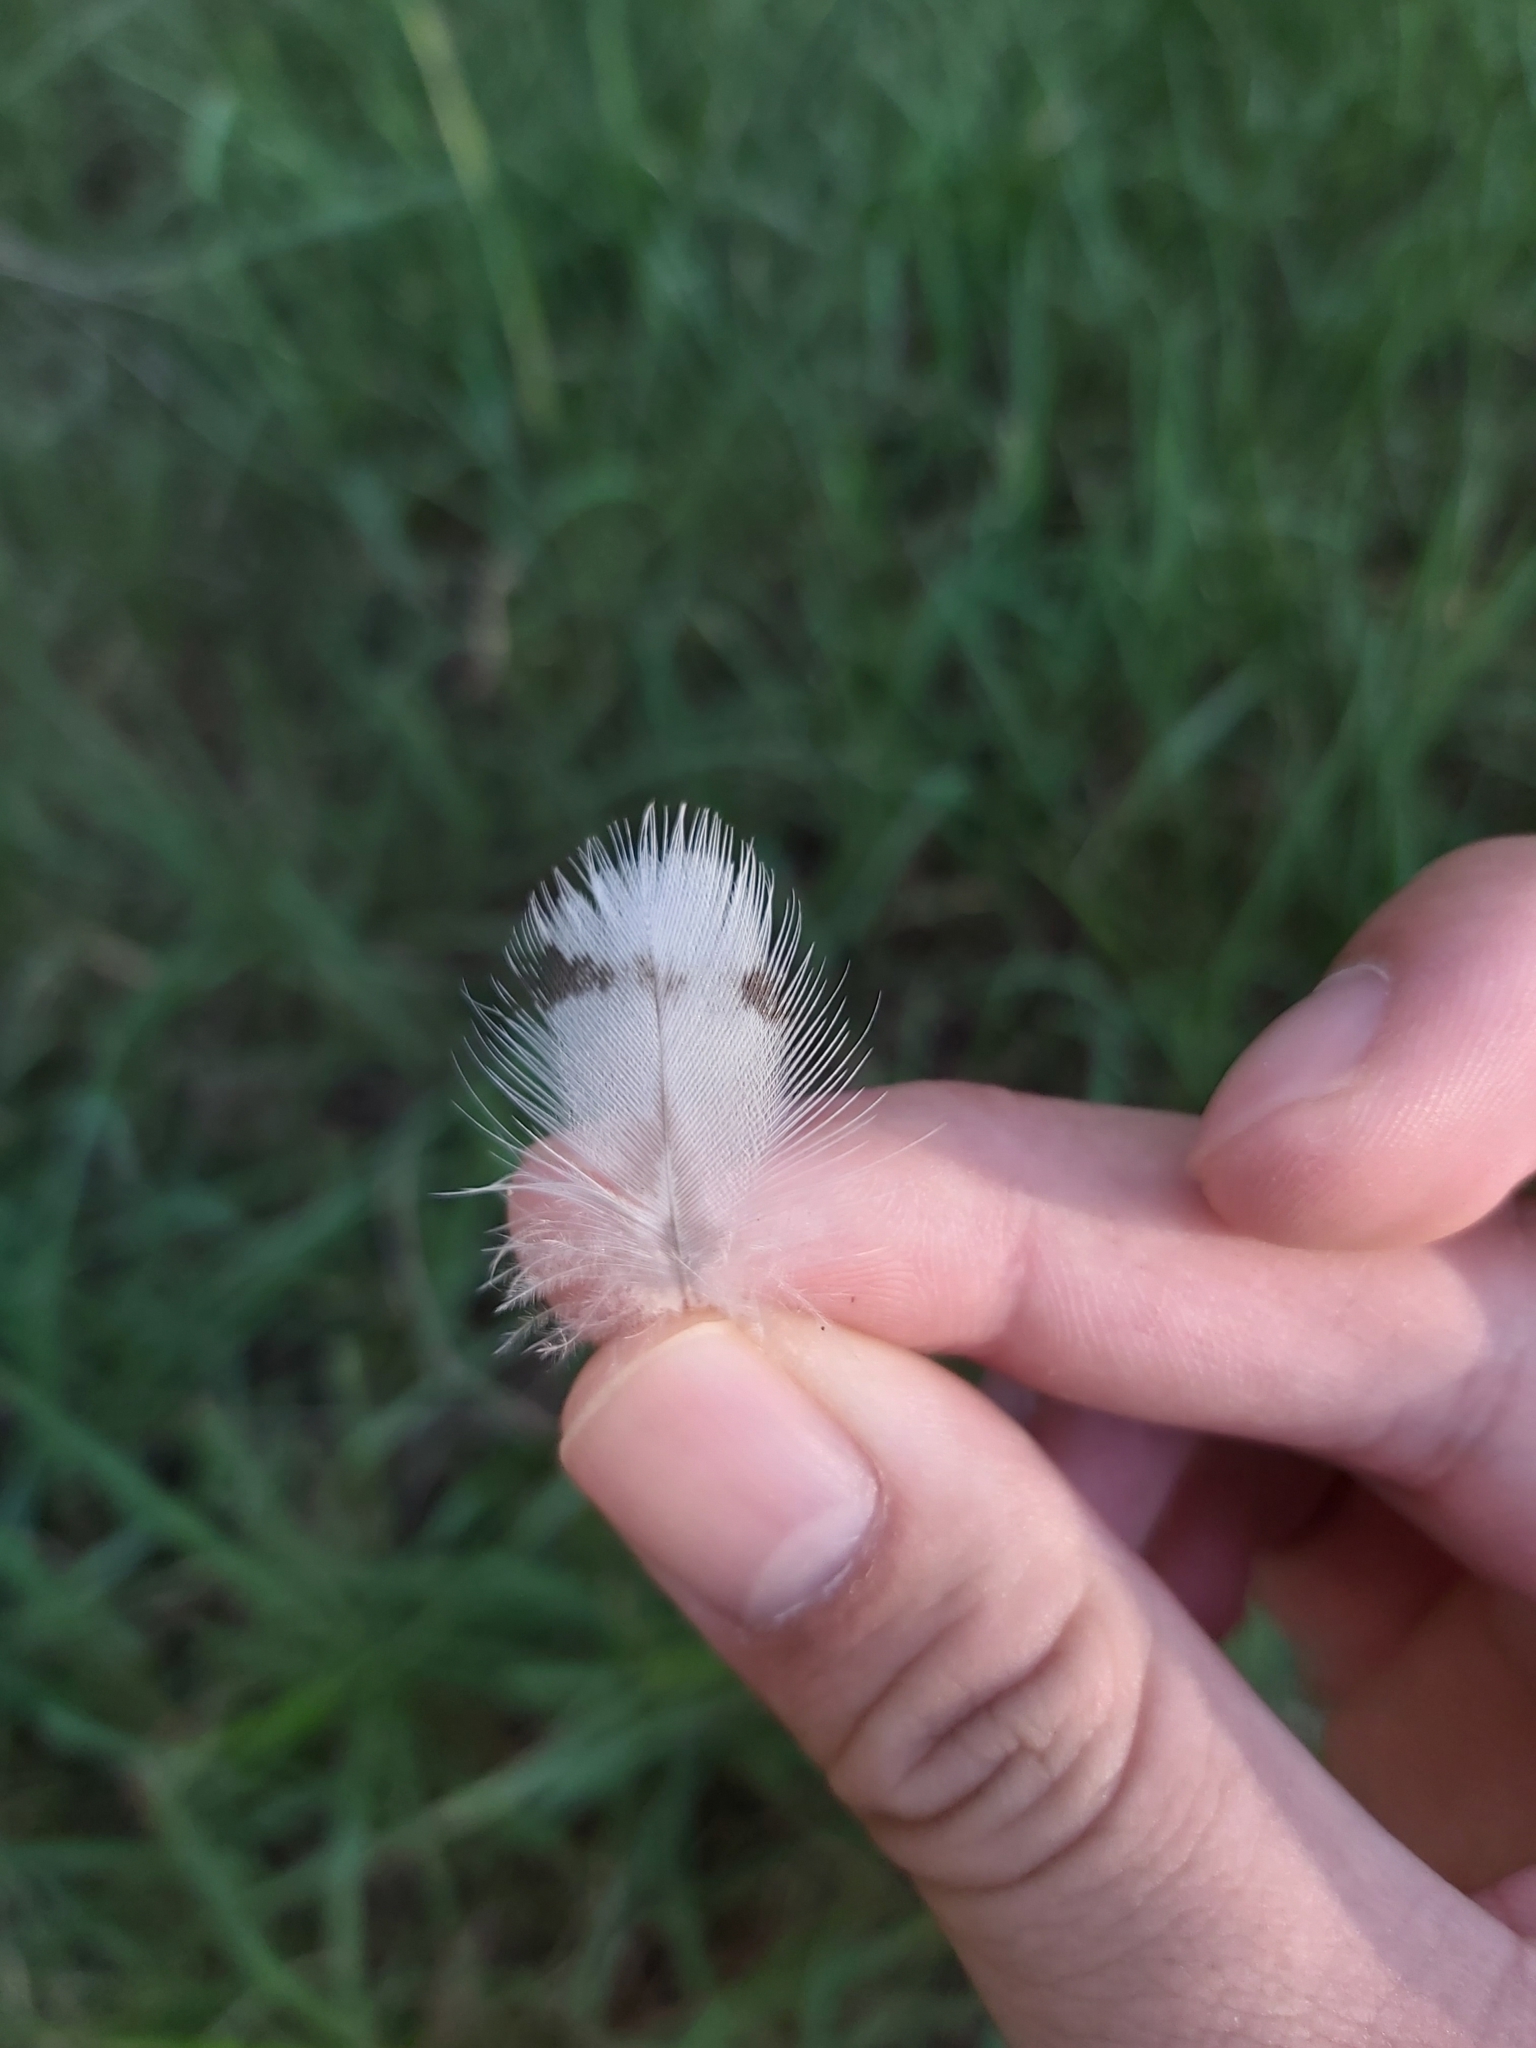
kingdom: Animalia
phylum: Chordata
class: Aves
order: Anseriformes
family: Anatidae
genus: Chenonetta
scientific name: Chenonetta jubata
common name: Maned duck
